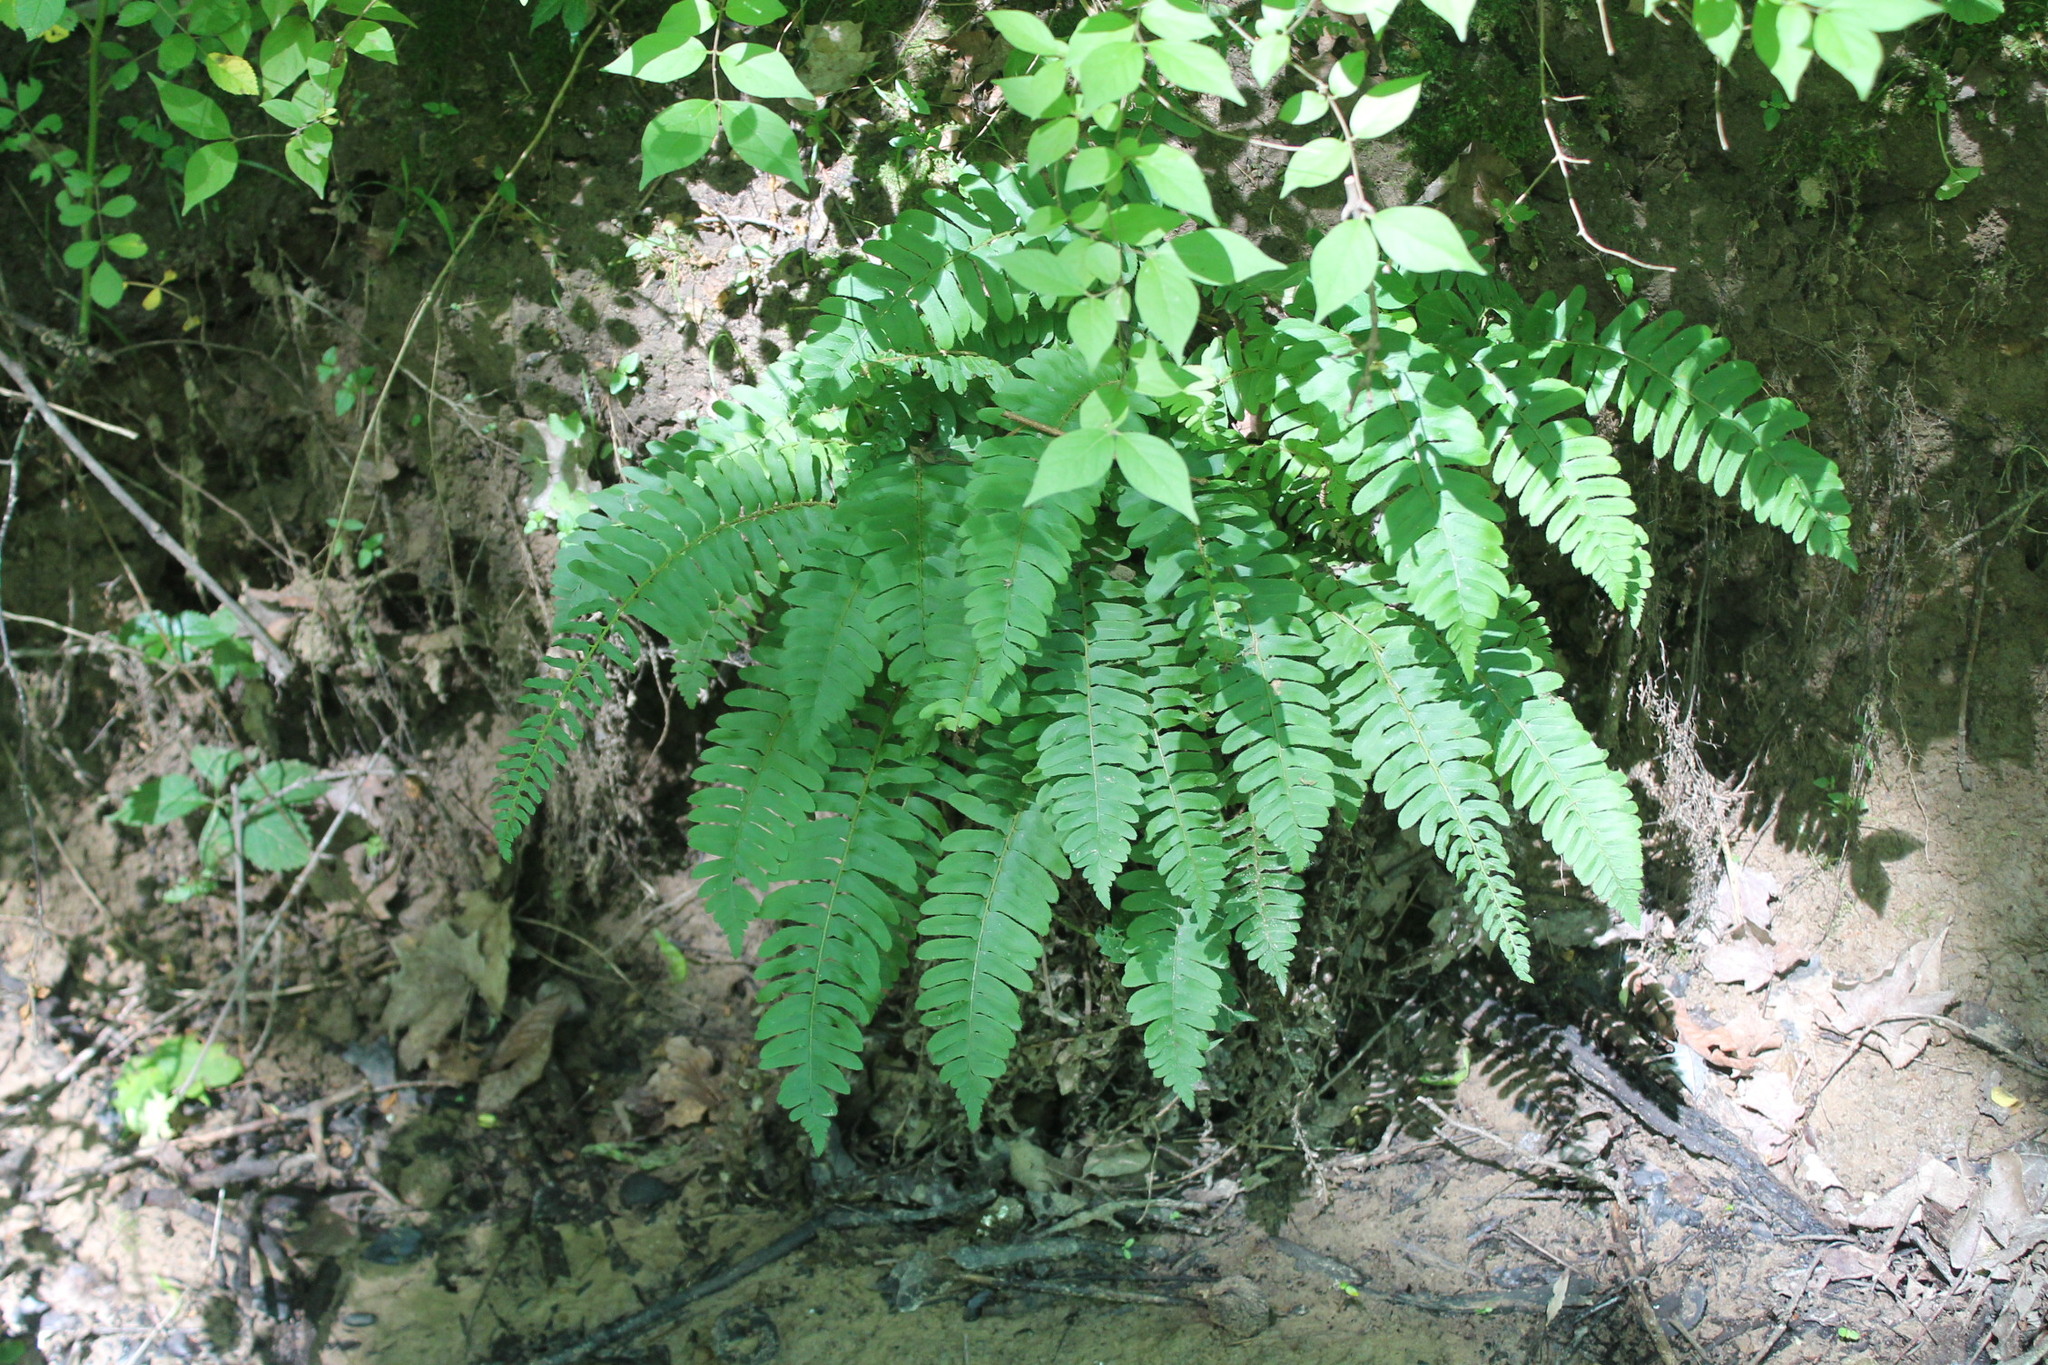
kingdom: Plantae
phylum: Tracheophyta
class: Polypodiopsida
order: Polypodiales
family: Dryopteridaceae
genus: Polystichum
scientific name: Polystichum acrostichoides
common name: Christmas fern
